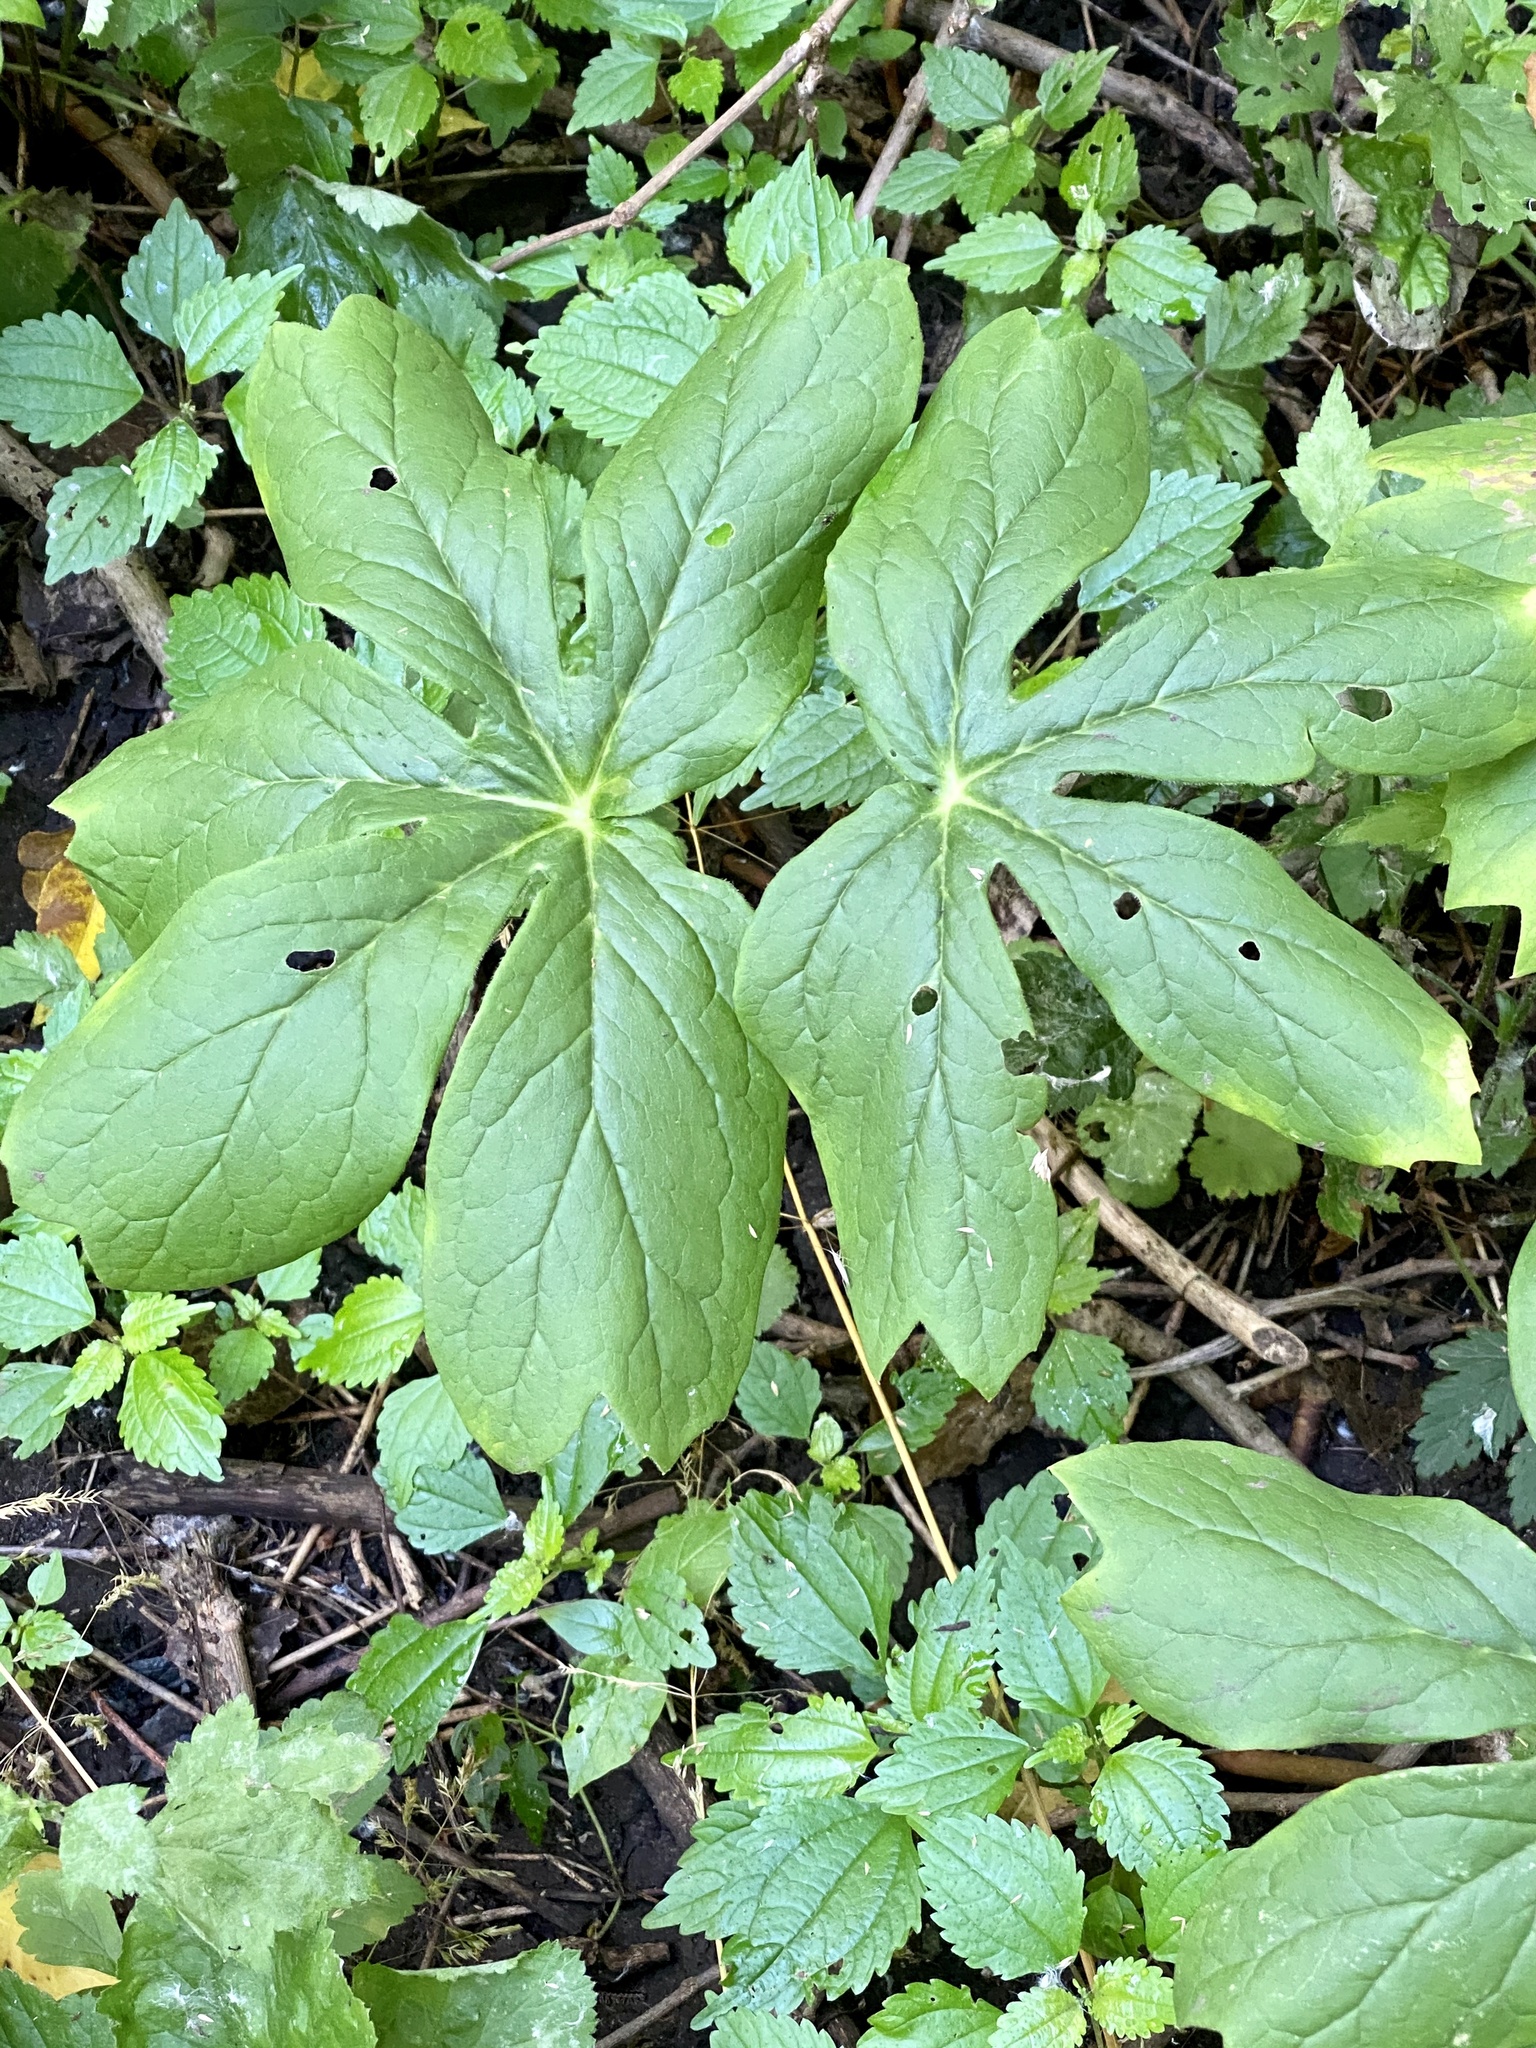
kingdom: Plantae
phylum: Tracheophyta
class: Magnoliopsida
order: Ranunculales
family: Berberidaceae
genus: Podophyllum
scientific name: Podophyllum peltatum
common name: Wild mandrake
